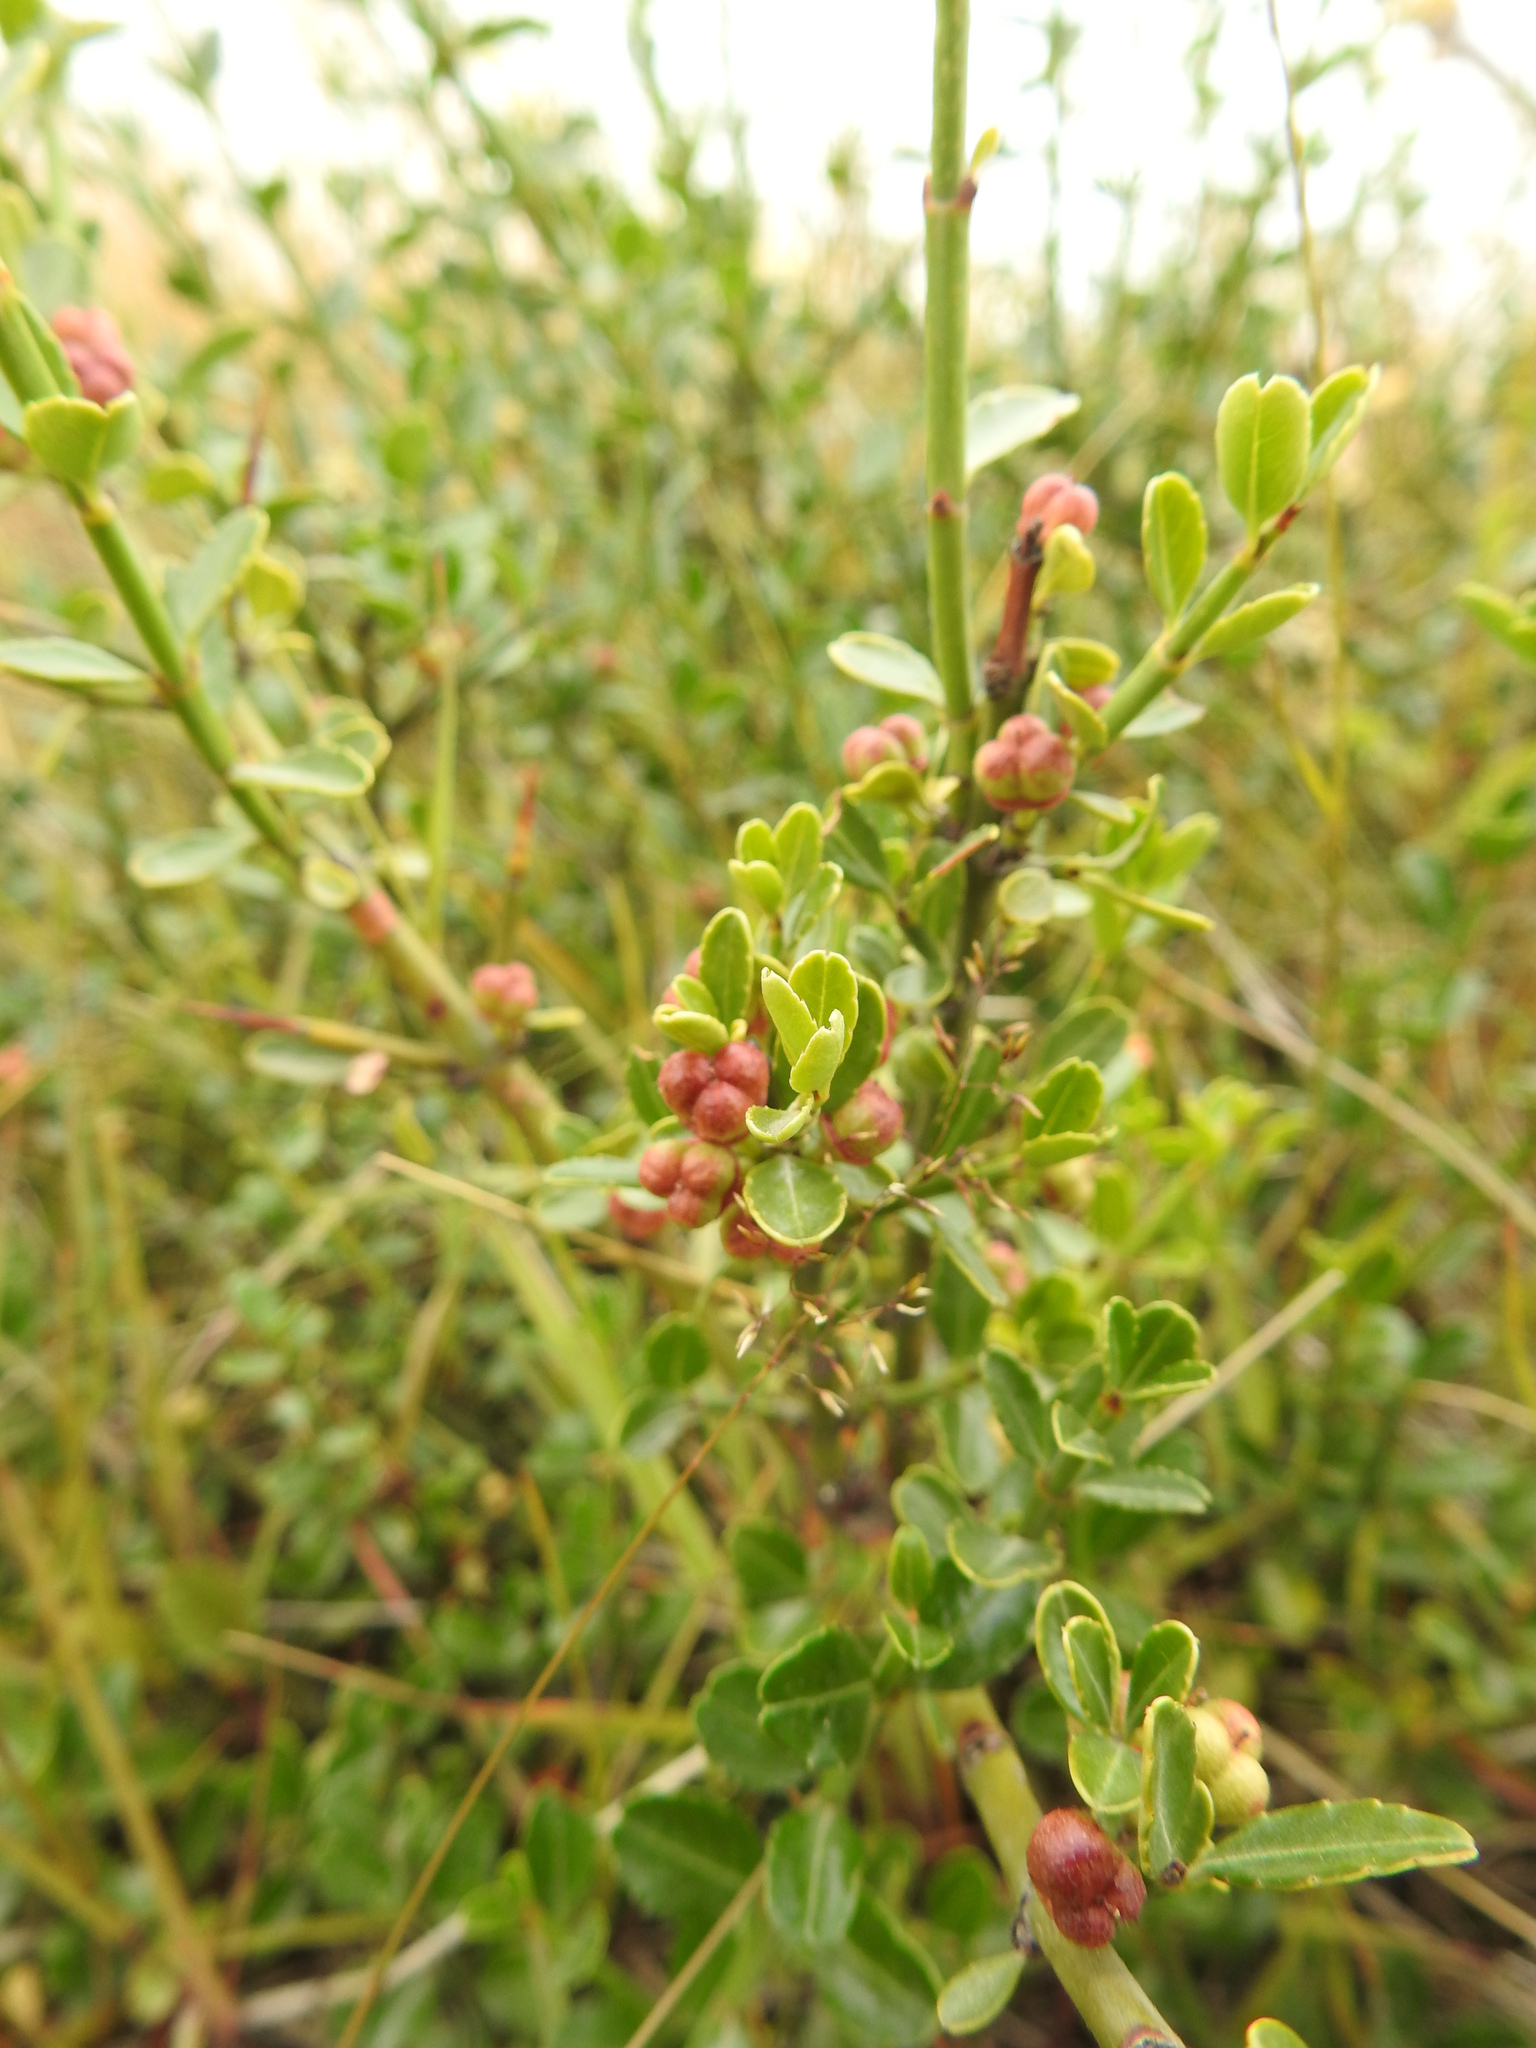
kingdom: Plantae
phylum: Tracheophyta
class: Magnoliopsida
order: Rosales
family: Rhamnaceae
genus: Discaria
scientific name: Discaria chacaye
